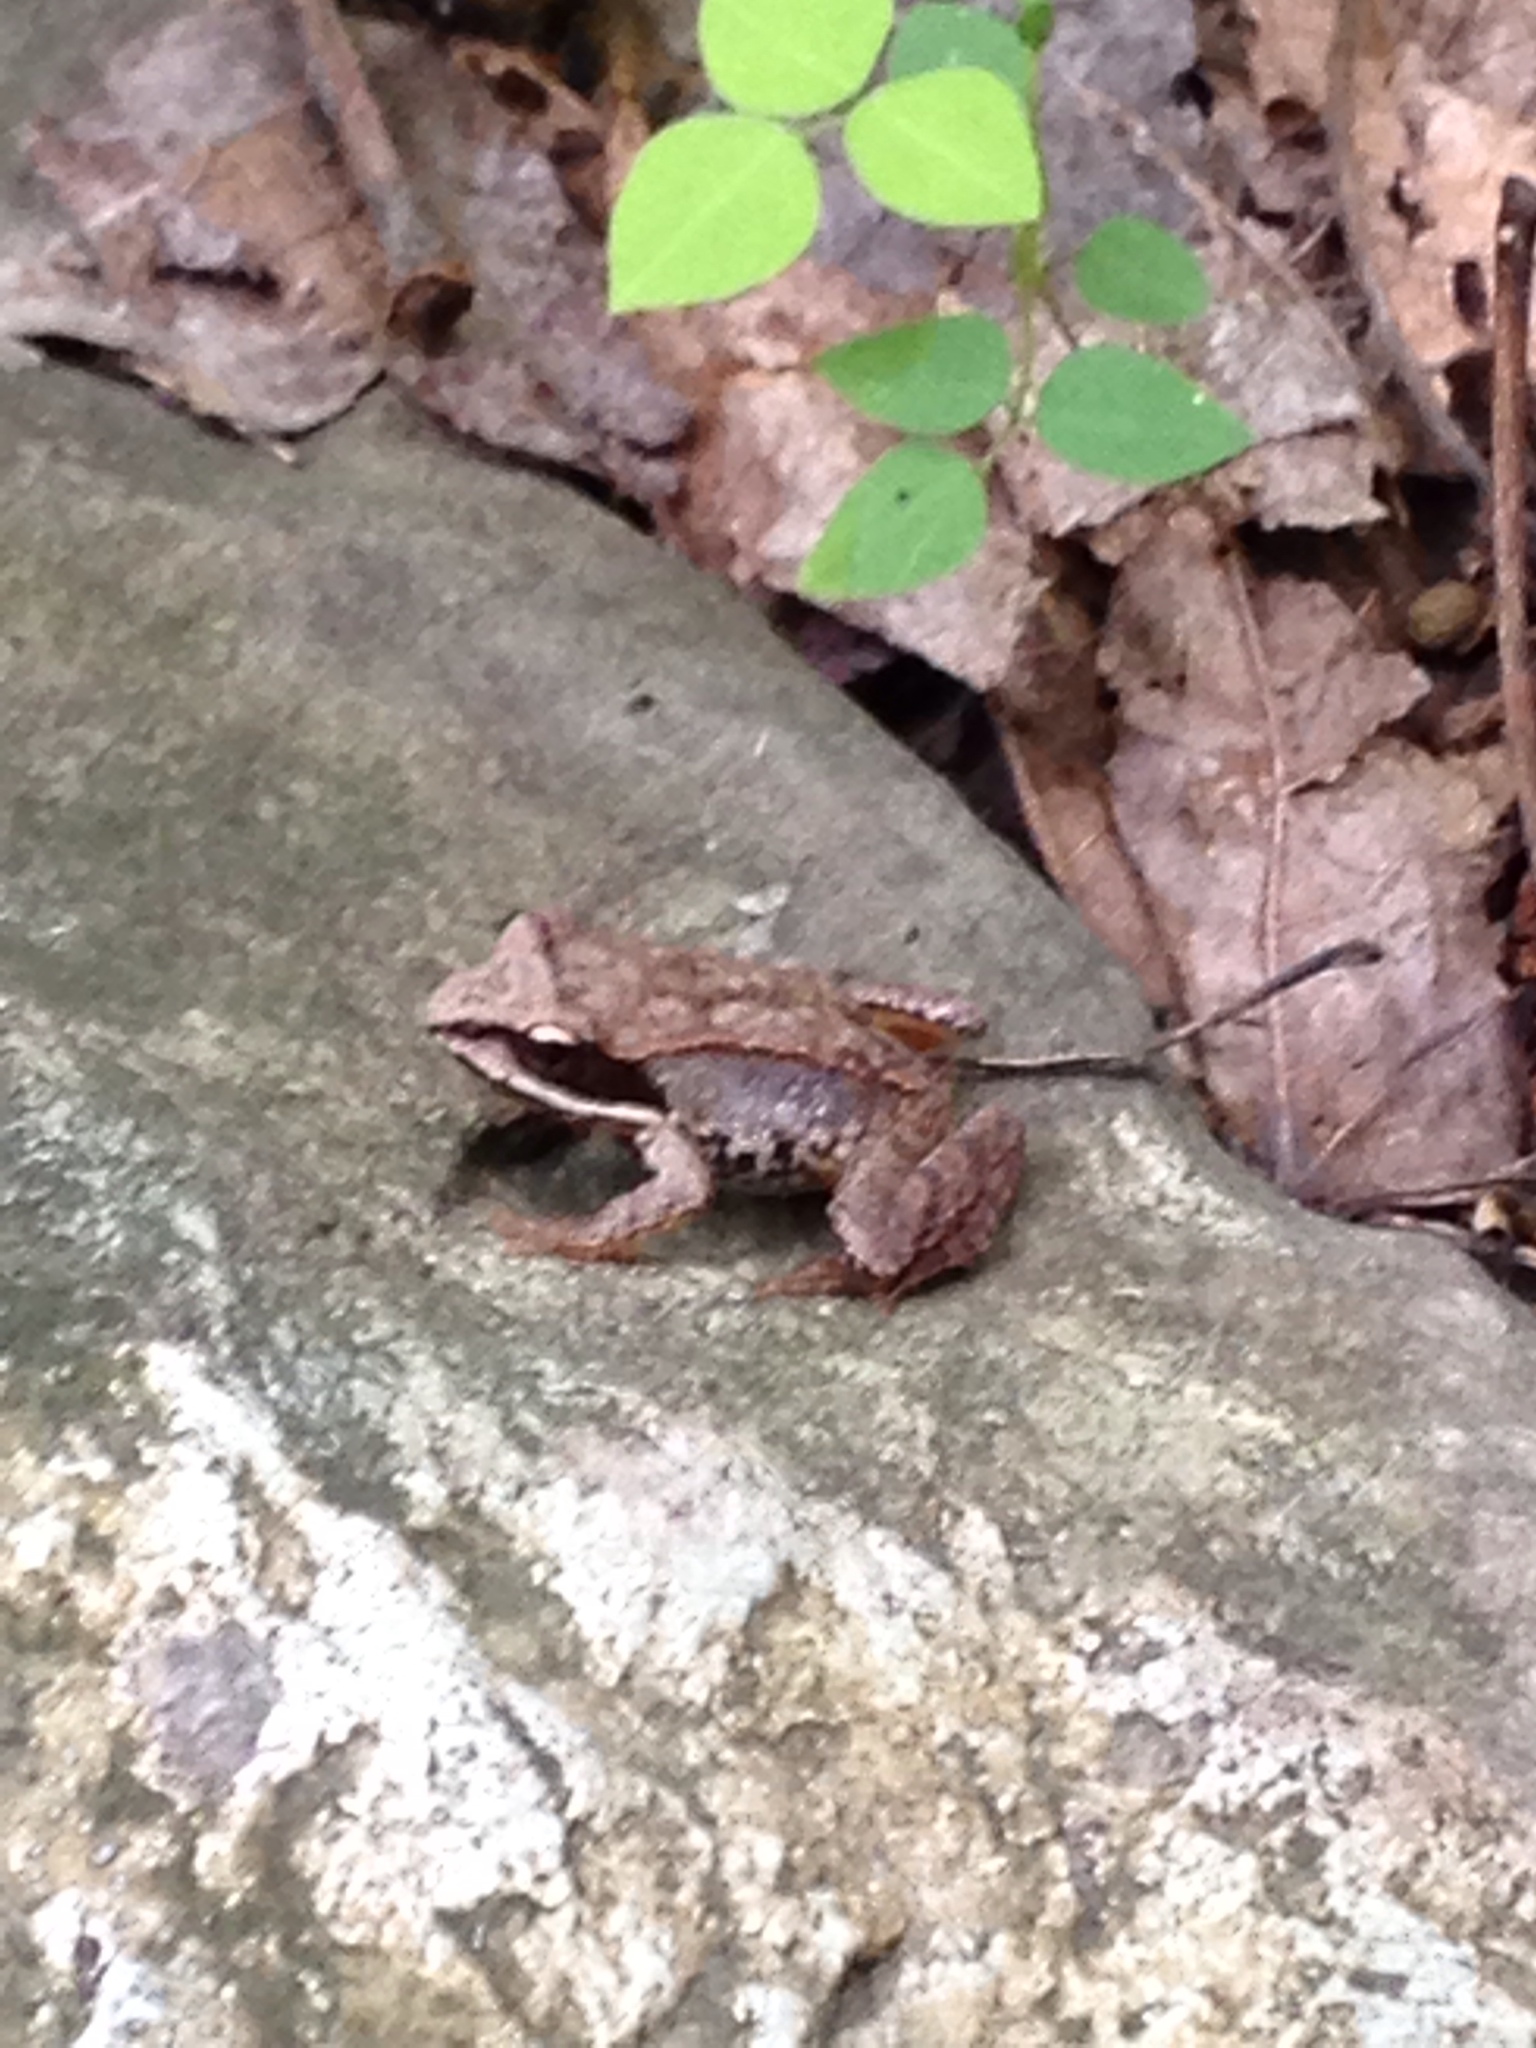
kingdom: Animalia
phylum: Chordata
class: Amphibia
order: Anura
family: Ranidae
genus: Lithobates
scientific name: Lithobates sylvaticus
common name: Wood frog
